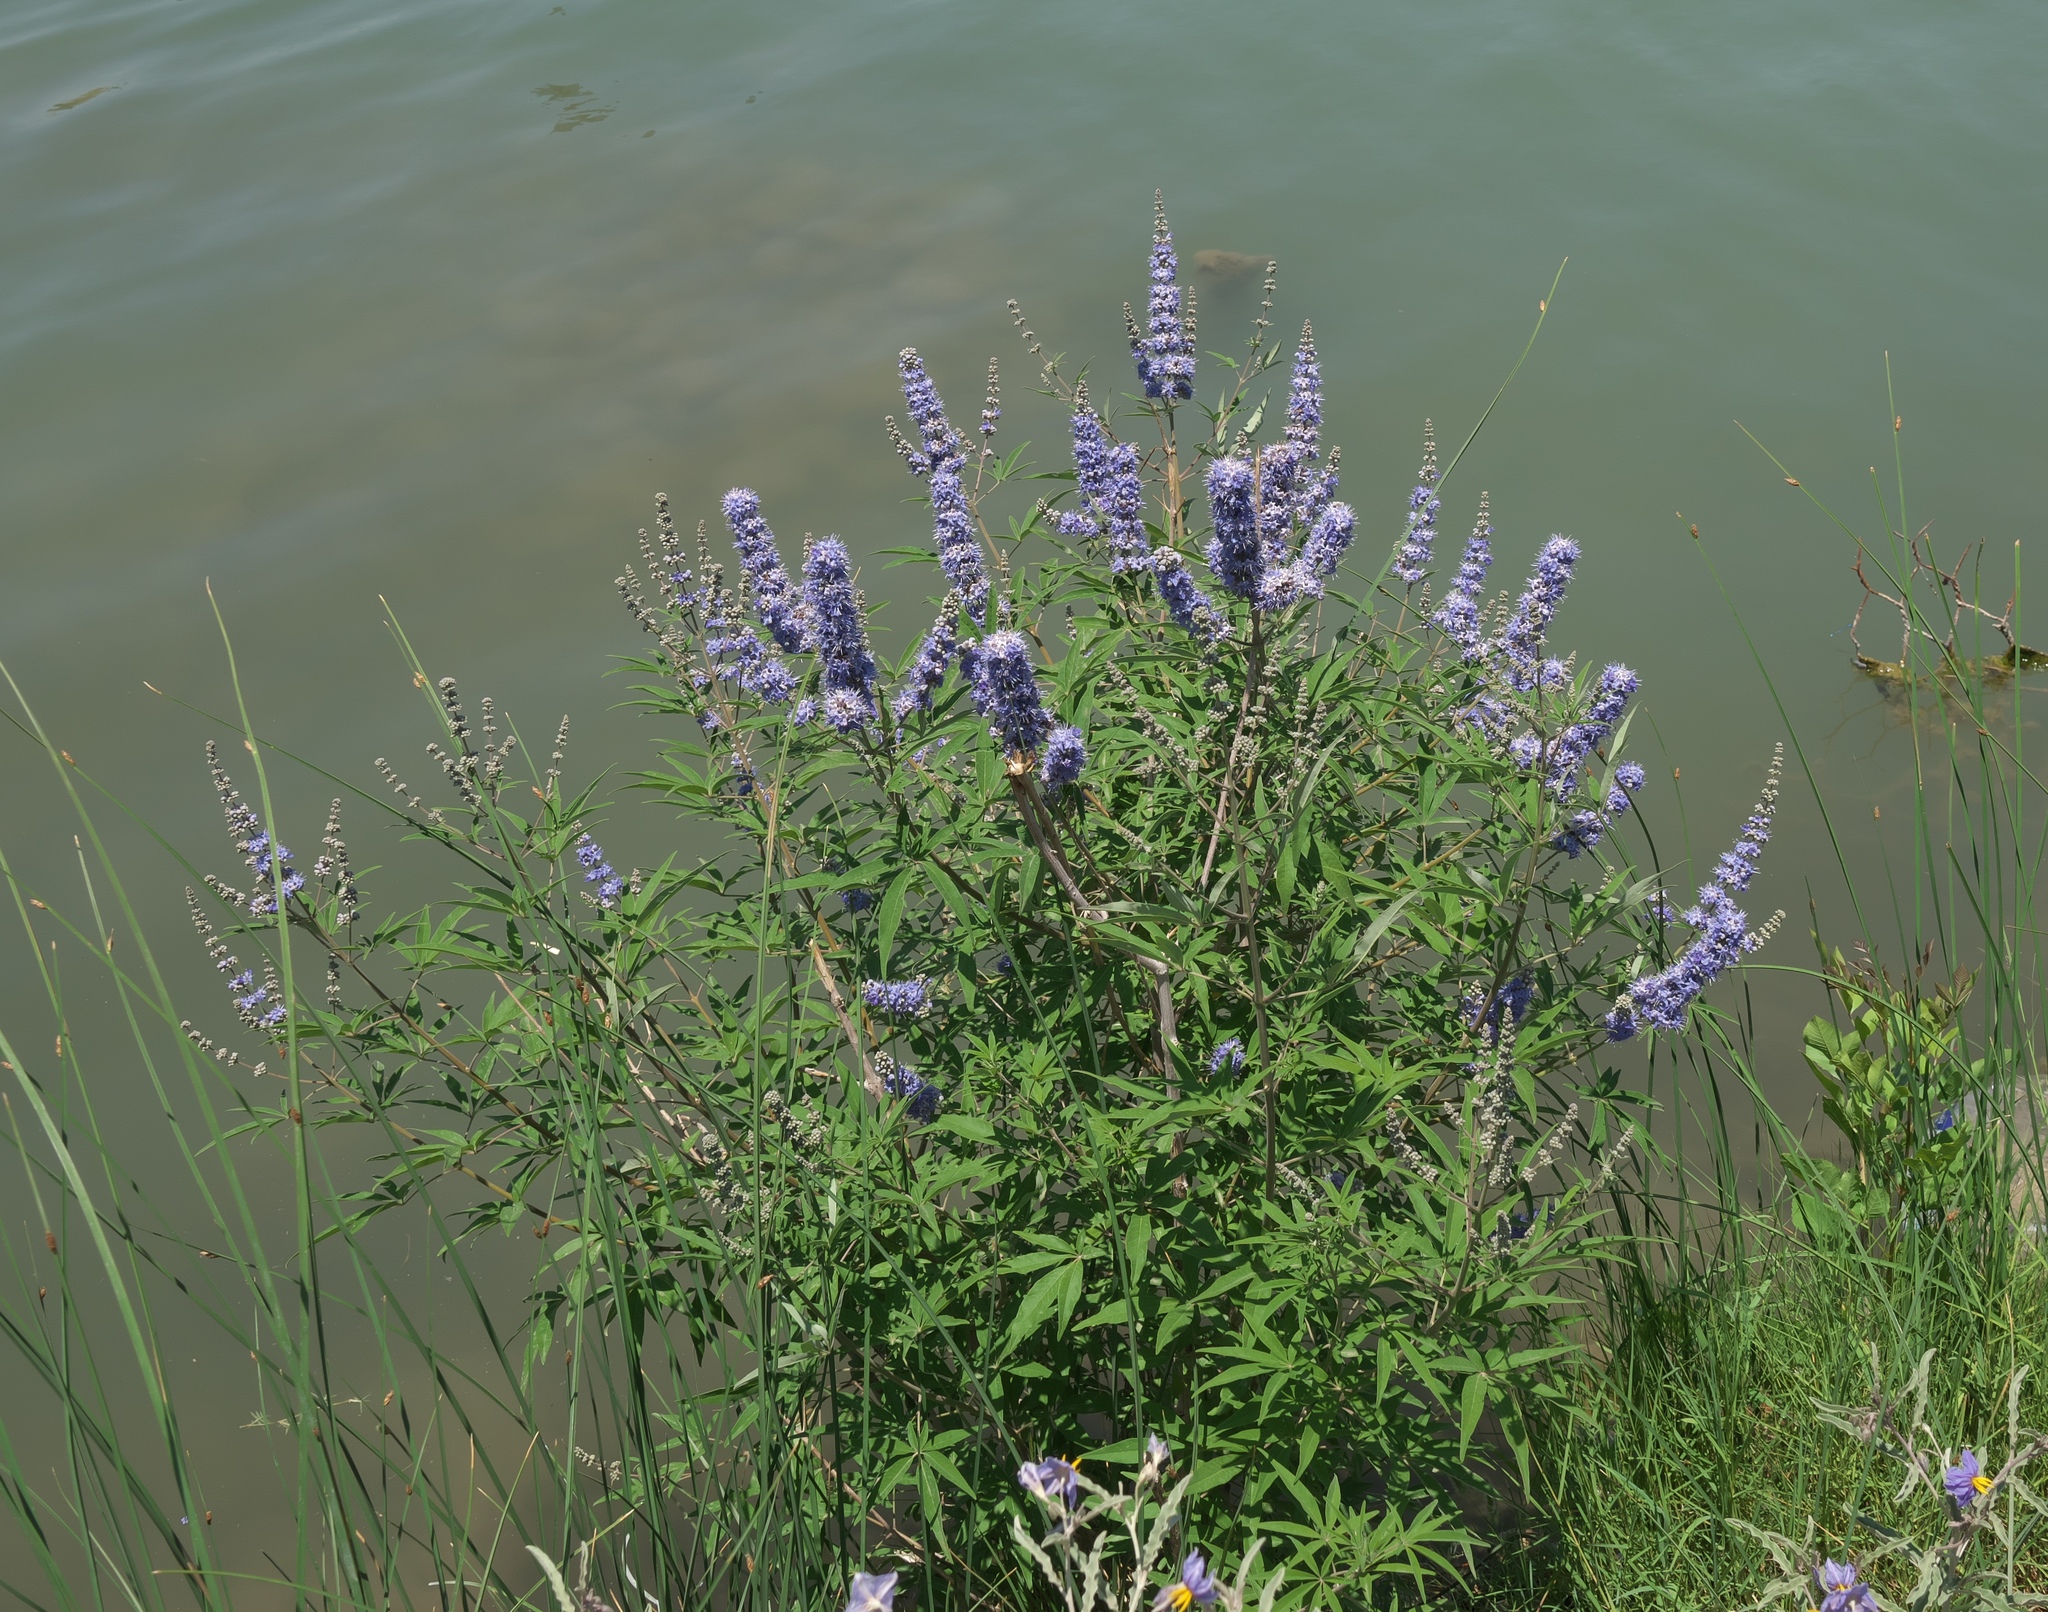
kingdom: Plantae
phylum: Tracheophyta
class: Magnoliopsida
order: Lamiales
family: Lamiaceae
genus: Vitex
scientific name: Vitex agnus-castus
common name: Chasteberry
